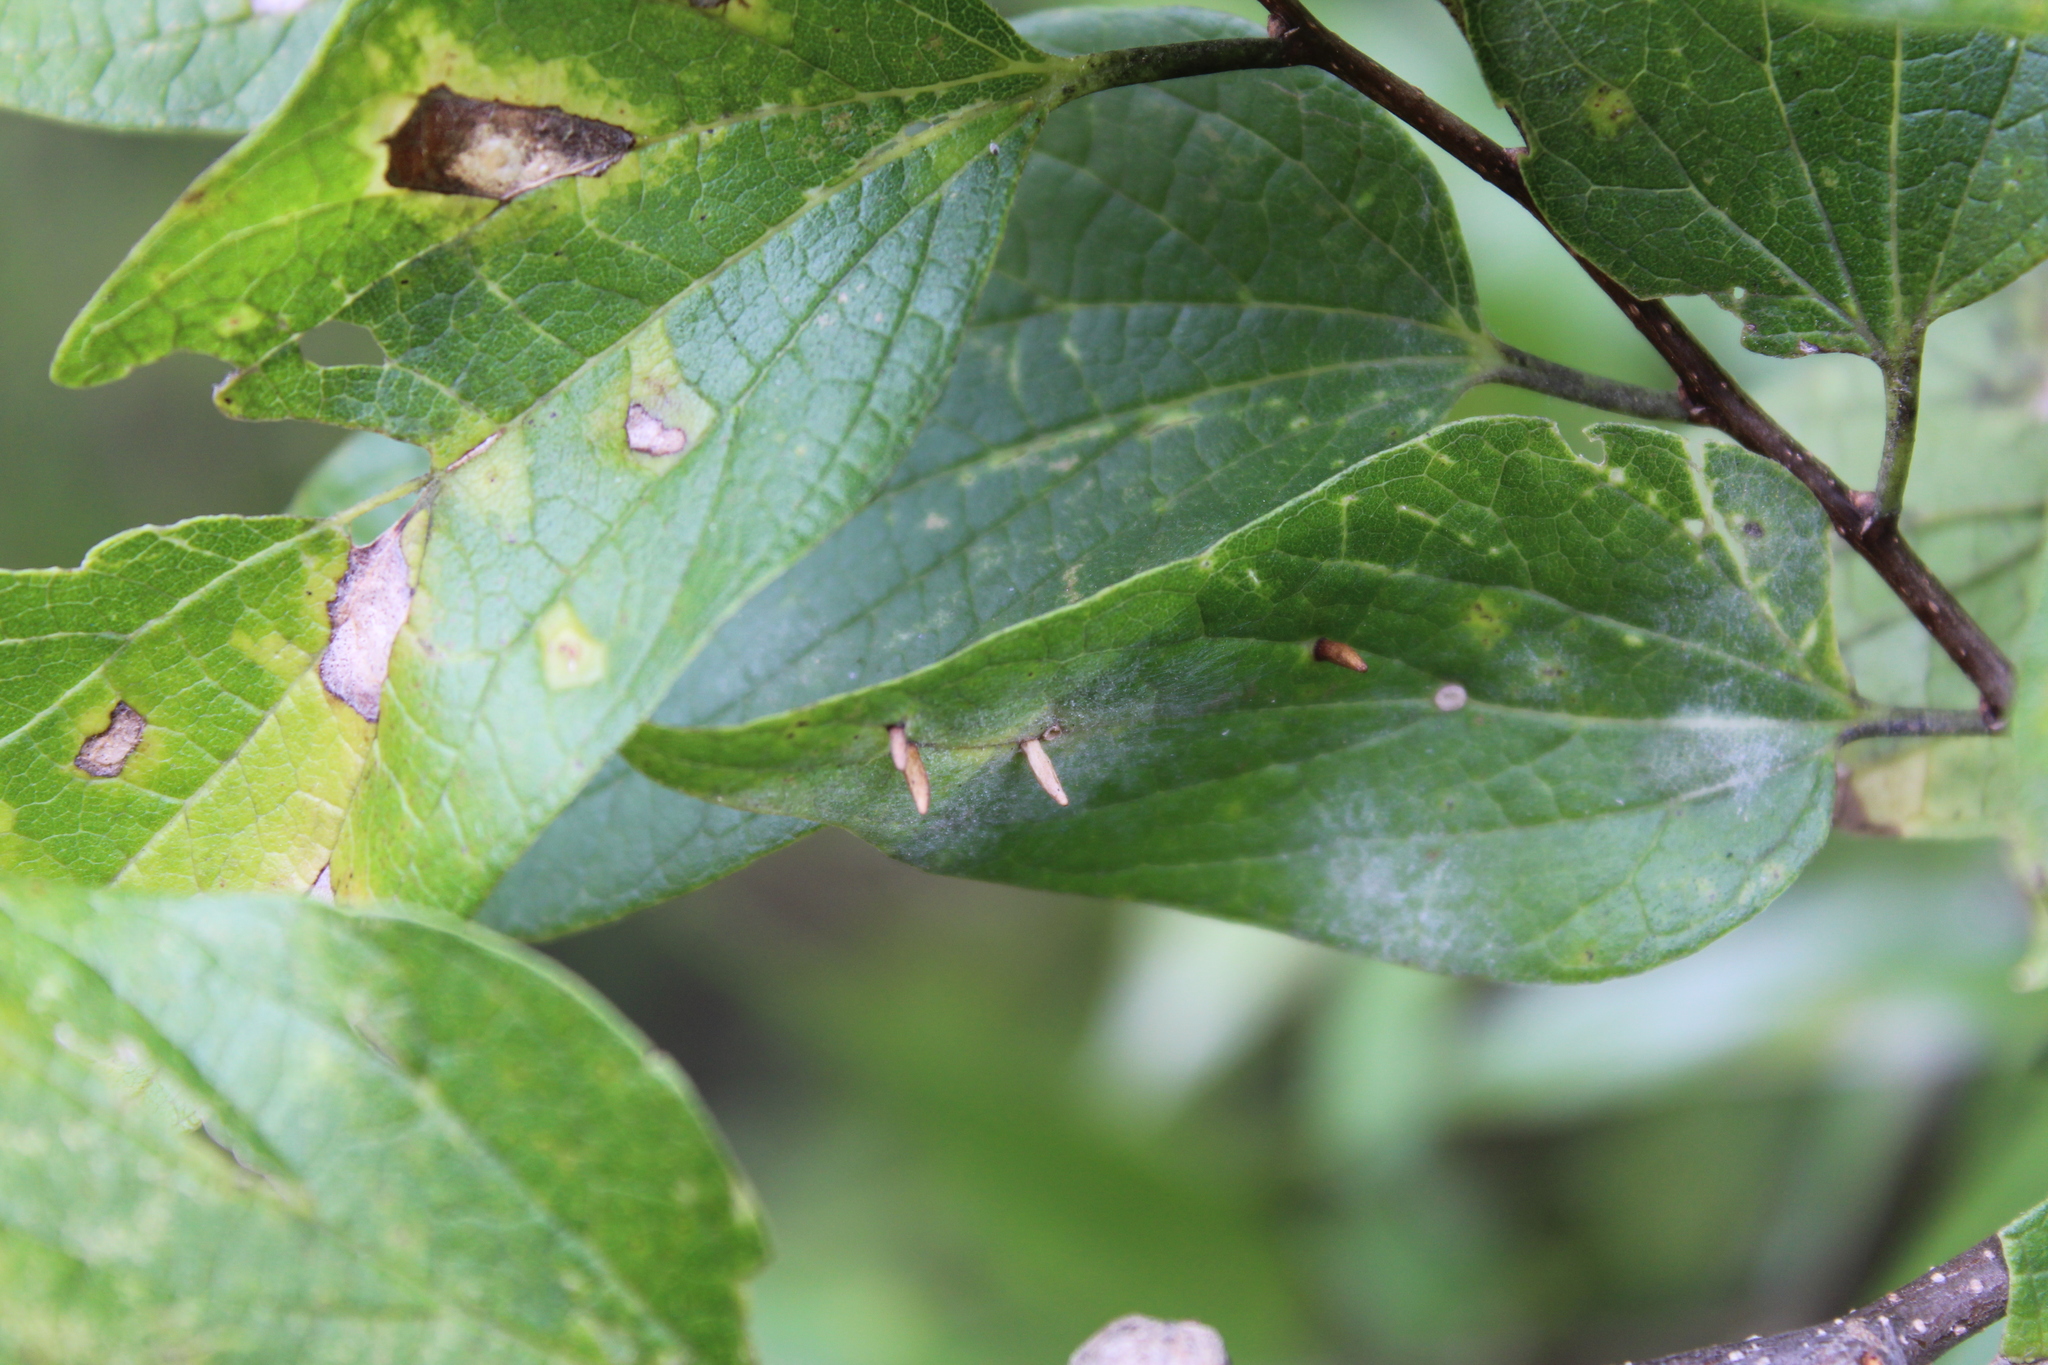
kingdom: Animalia
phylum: Arthropoda
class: Insecta
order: Diptera
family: Cecidomyiidae
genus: Celticecis
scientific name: Celticecis
